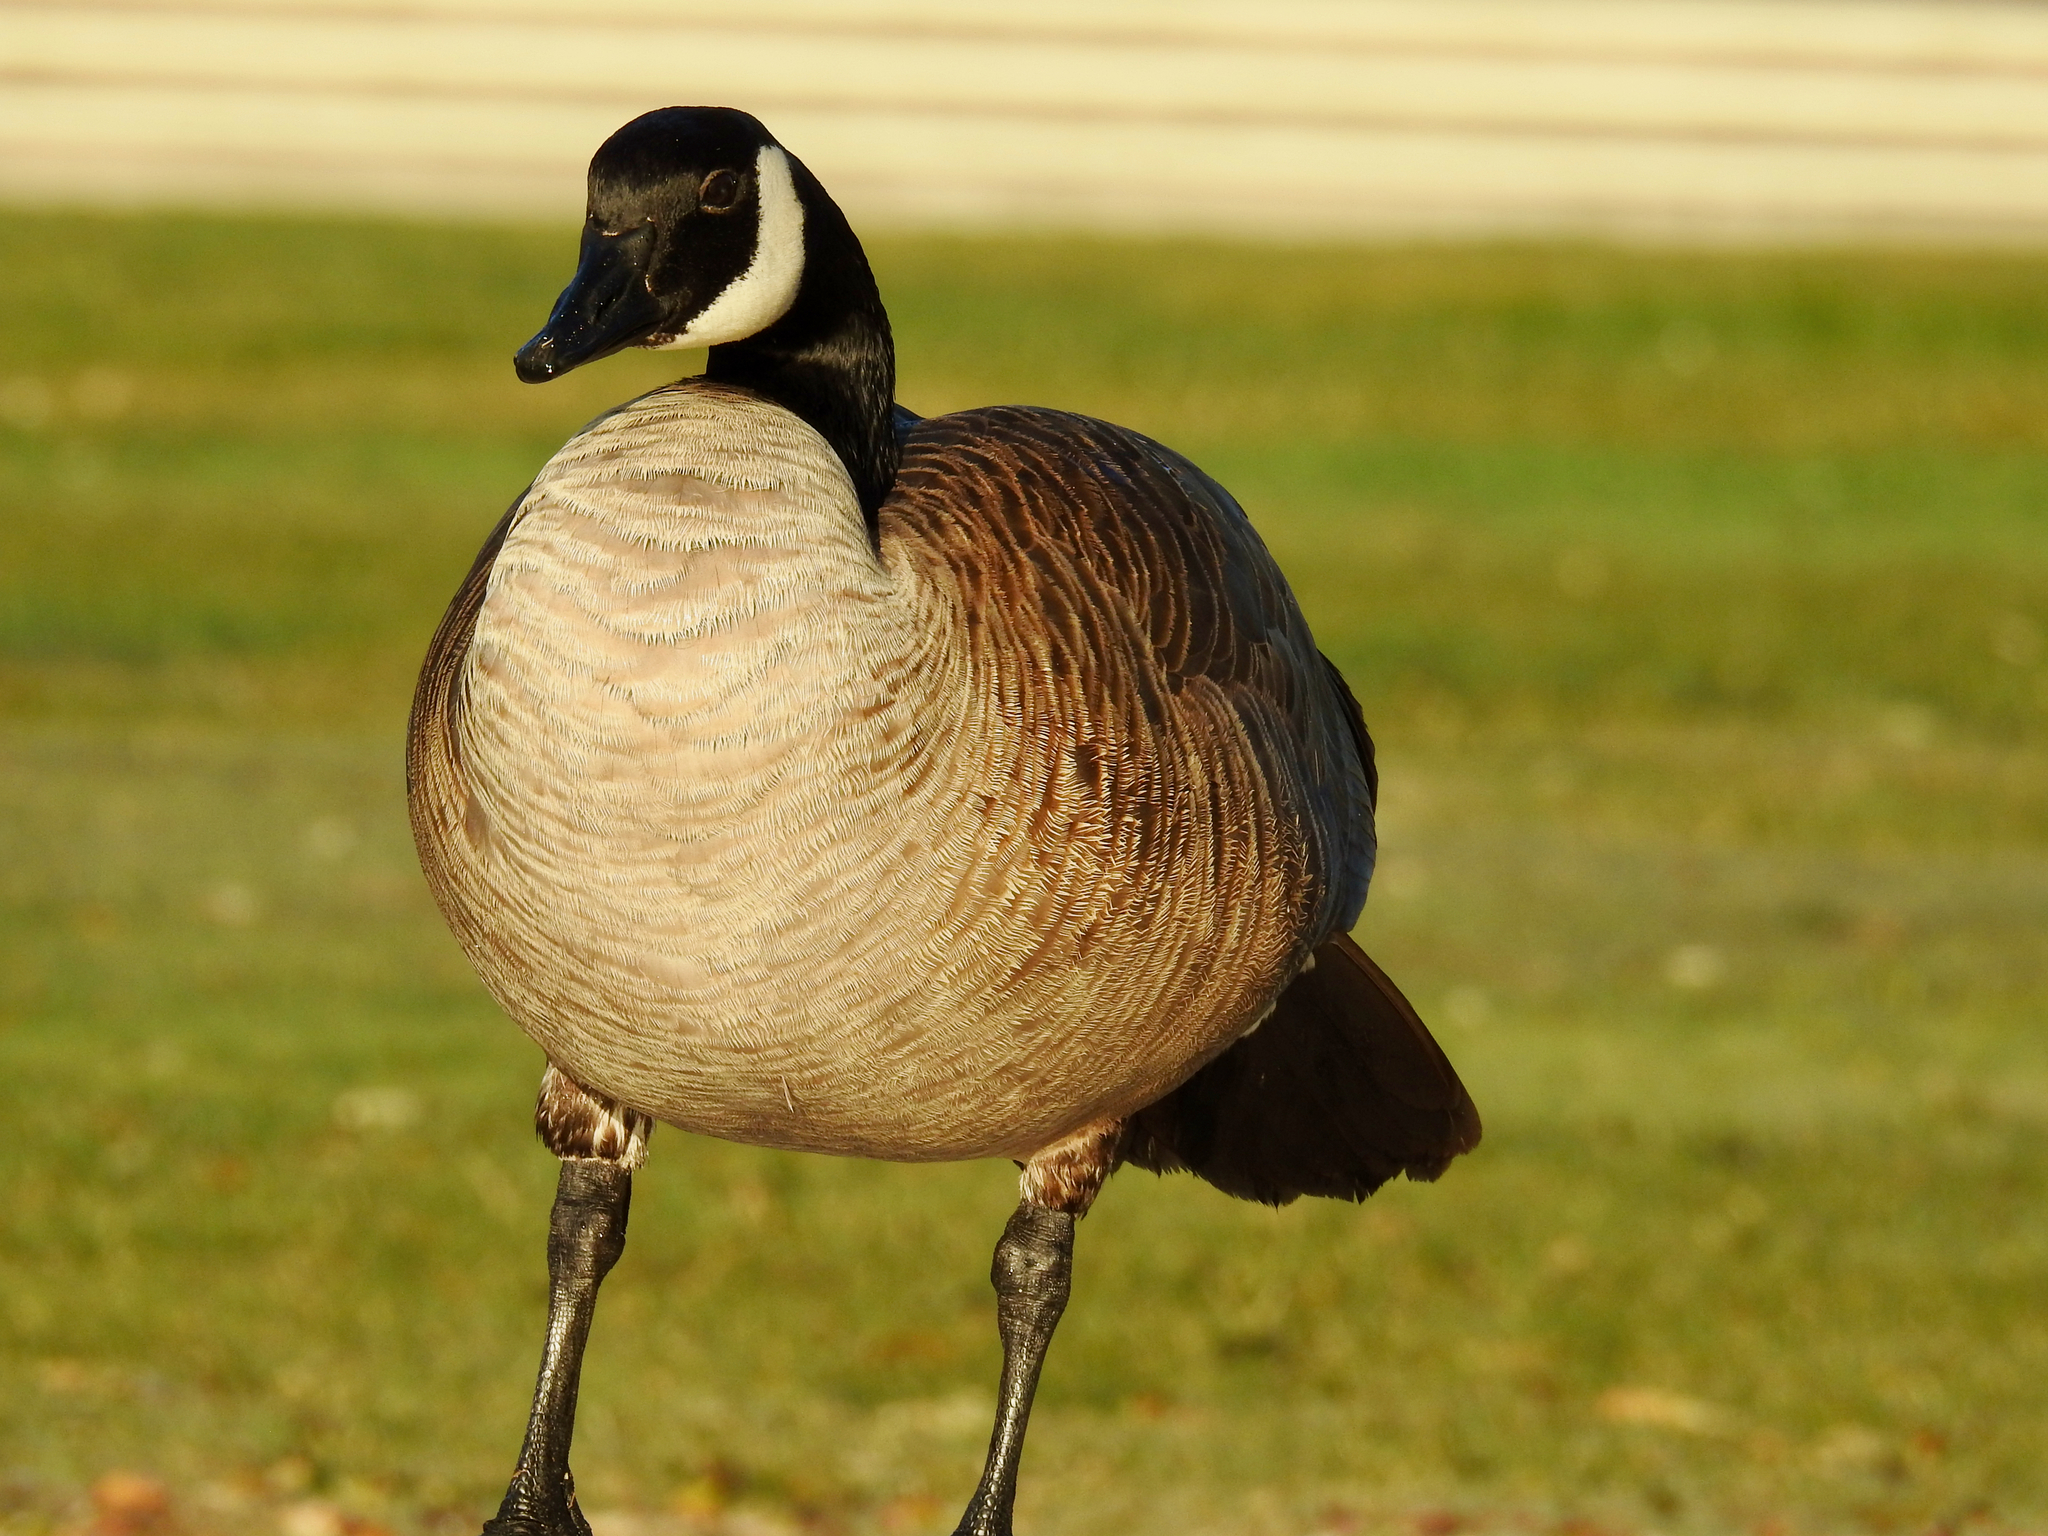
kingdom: Animalia
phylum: Chordata
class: Aves
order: Anseriformes
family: Anatidae
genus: Branta
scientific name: Branta canadensis
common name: Canada goose
